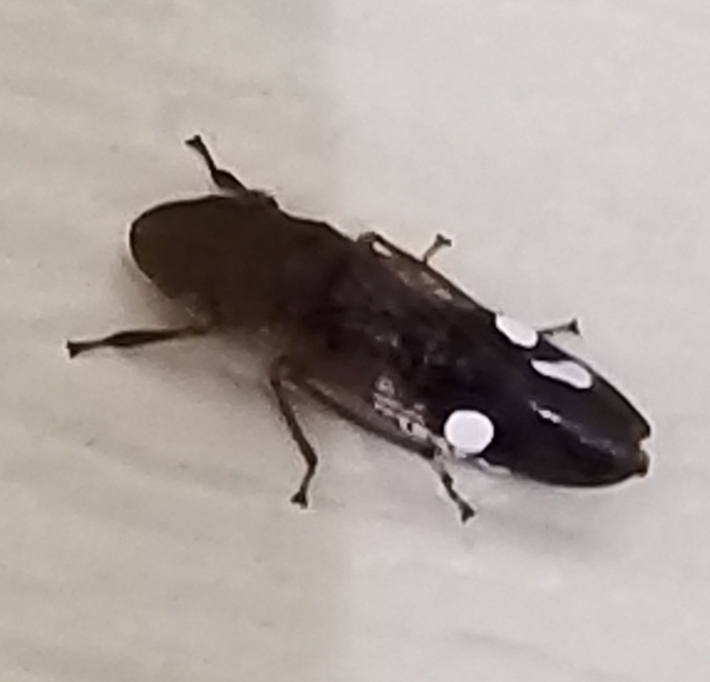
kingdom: Animalia
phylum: Arthropoda
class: Insecta
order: Hemiptera
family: Cicadellidae
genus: Homalodisca
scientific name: Homalodisca vitripennis
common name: Glassy-winged sharpshooter
